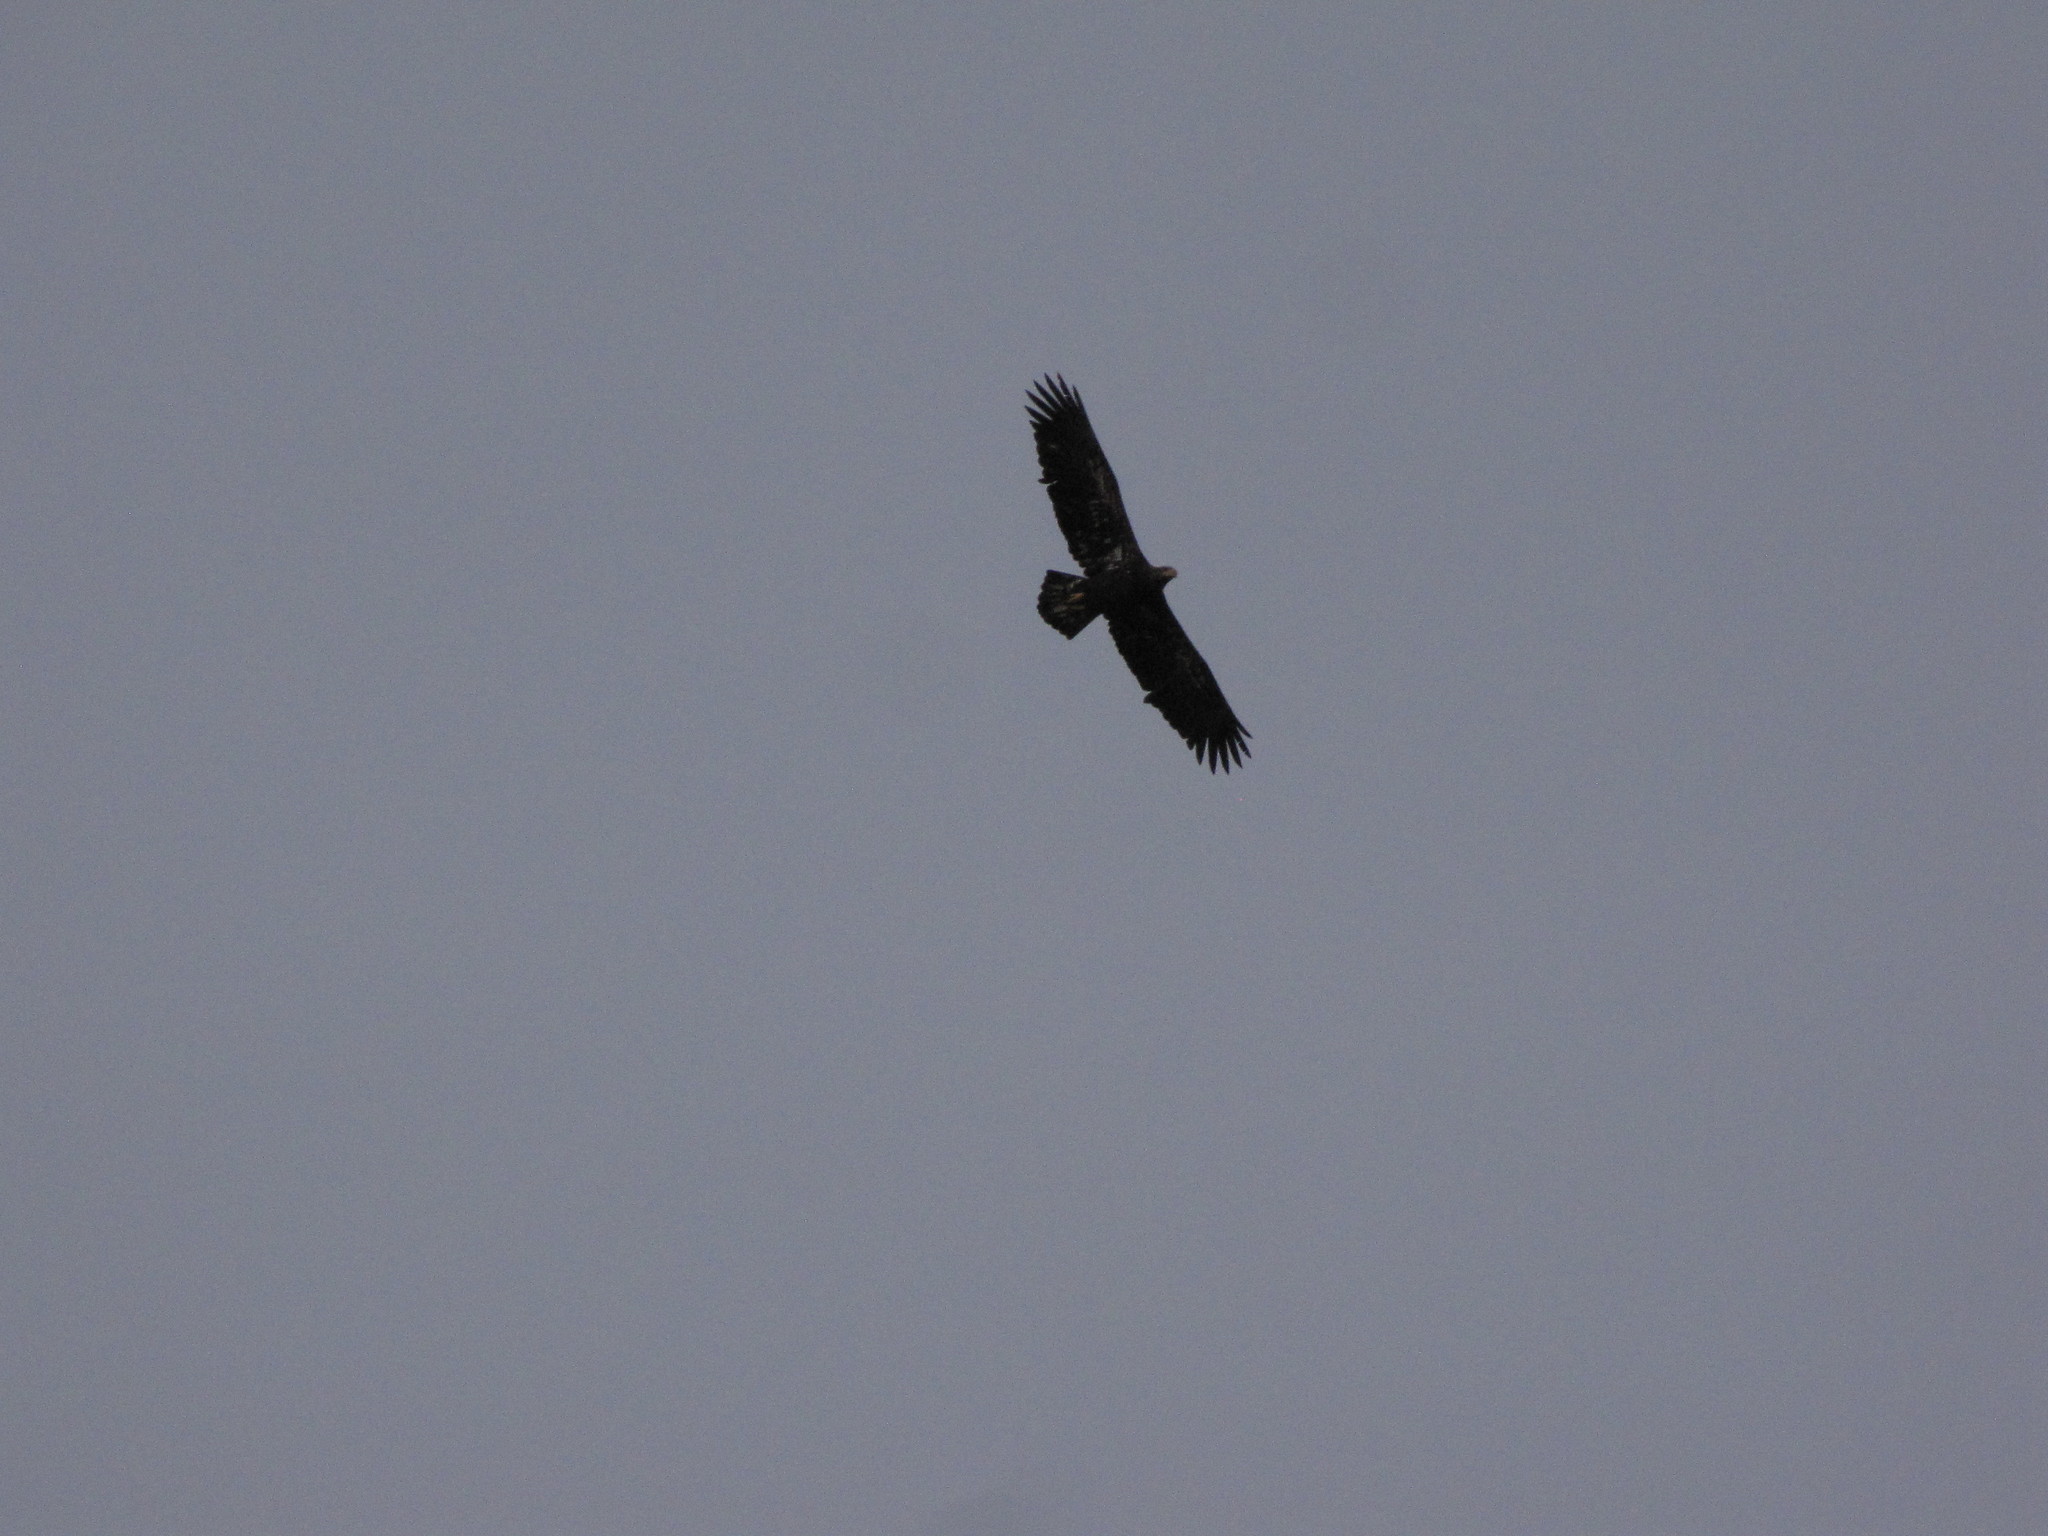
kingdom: Animalia
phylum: Chordata
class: Aves
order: Accipitriformes
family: Accipitridae
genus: Haliaeetus
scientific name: Haliaeetus leucocephalus
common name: Bald eagle
